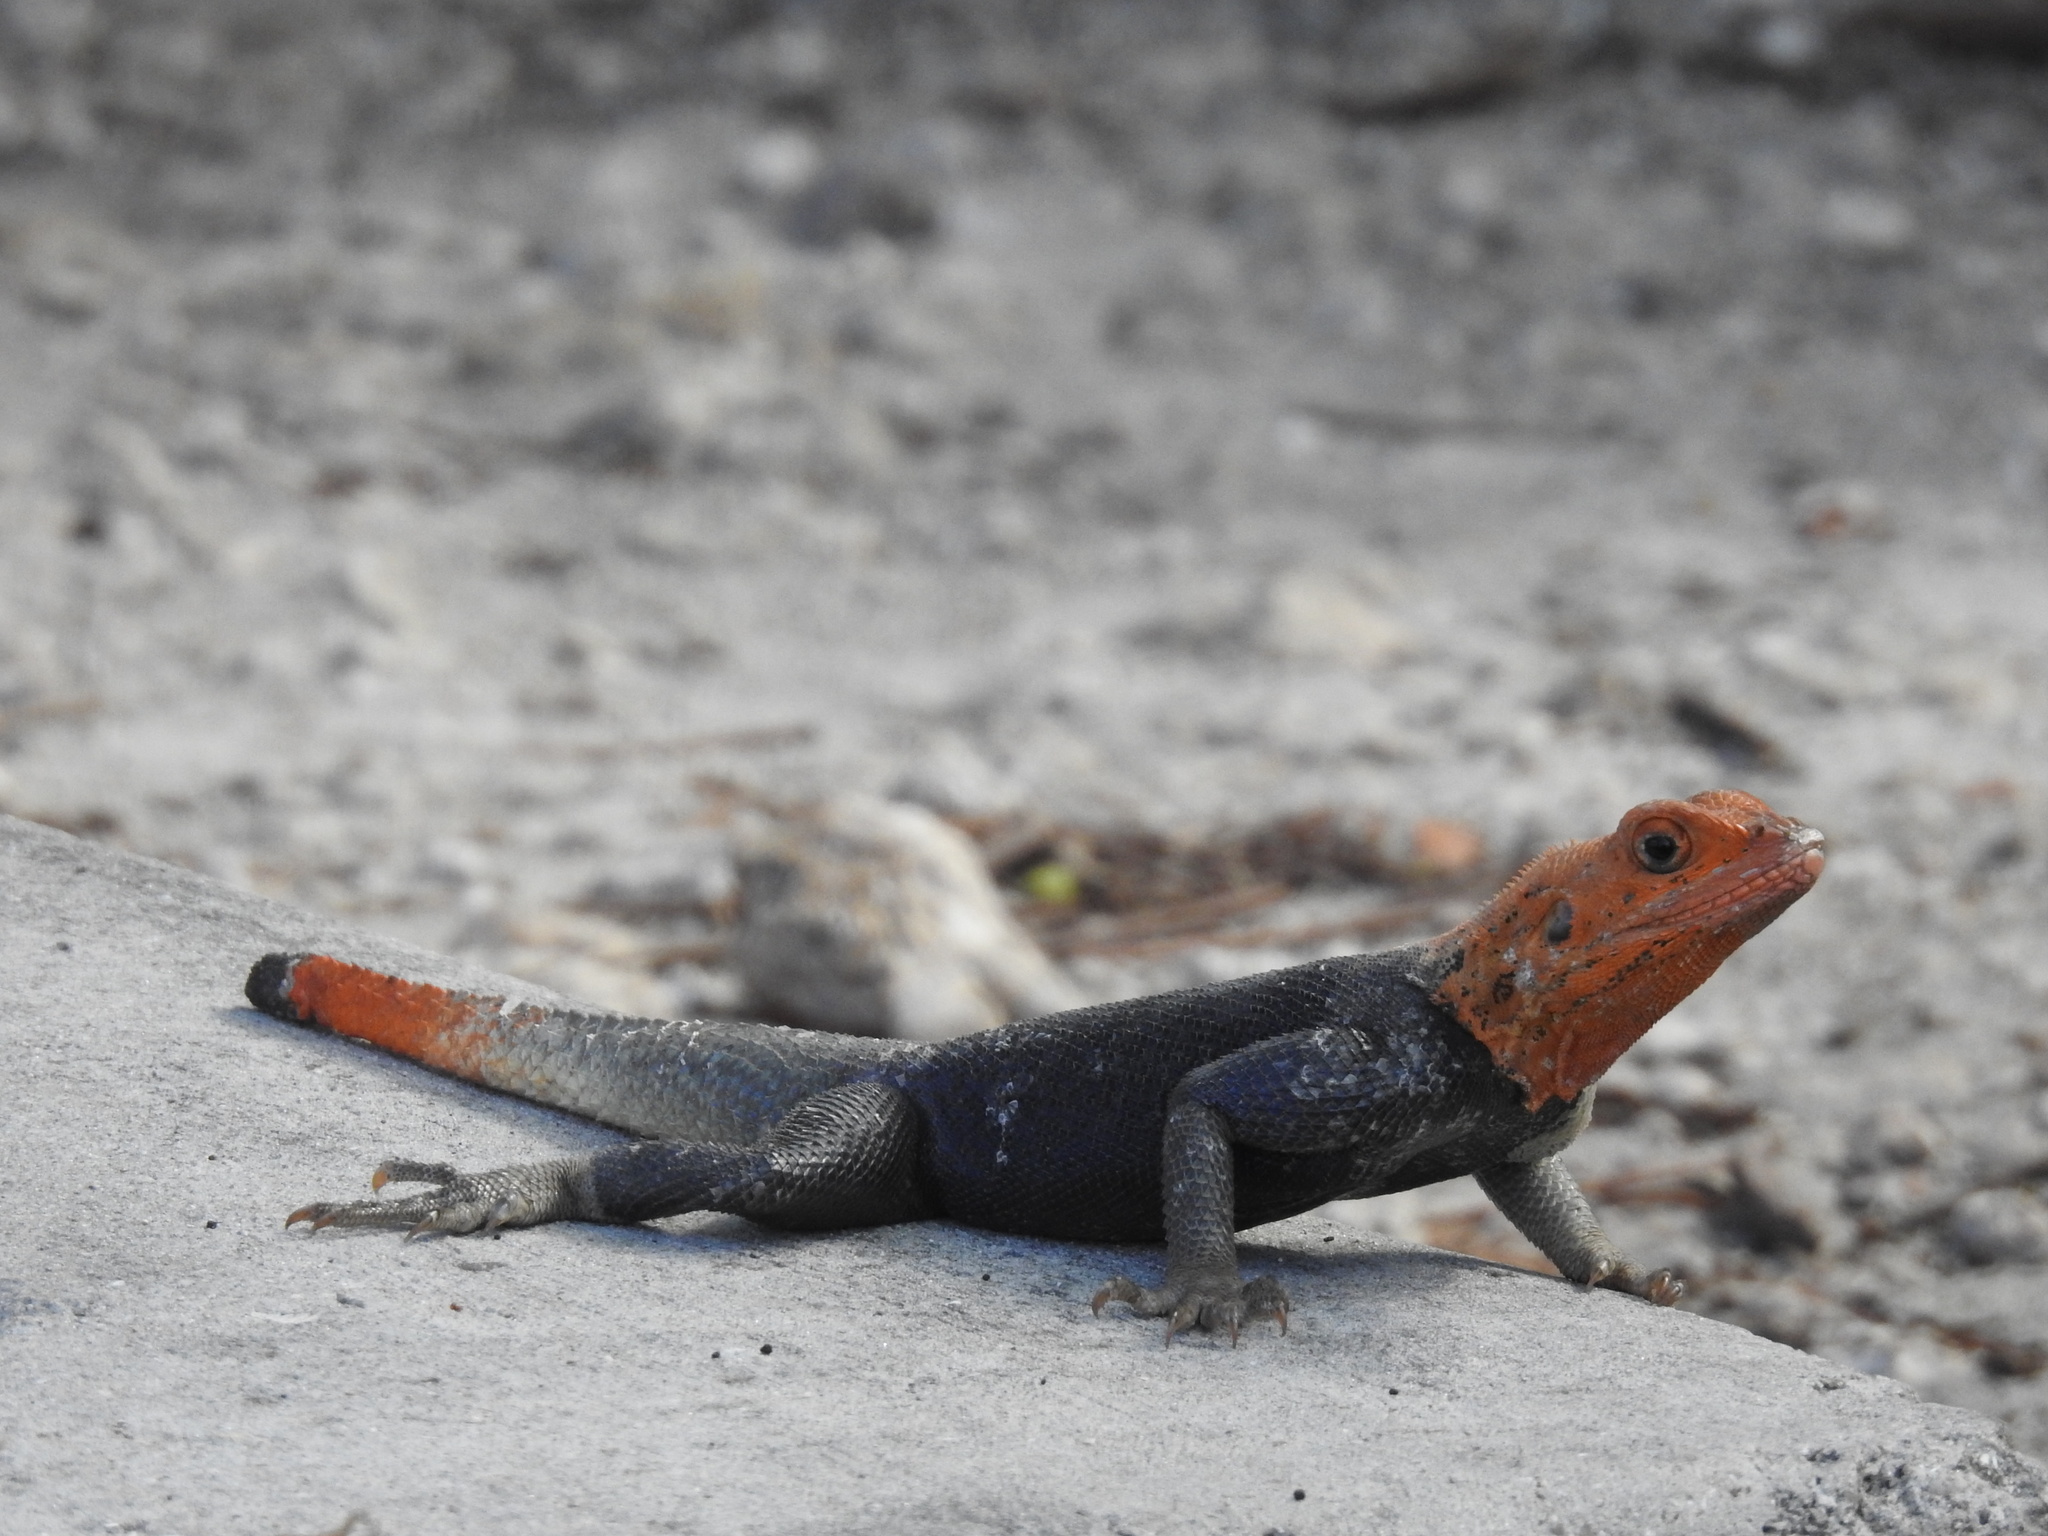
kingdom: Animalia
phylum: Chordata
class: Squamata
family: Agamidae
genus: Agama
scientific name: Agama picticauda
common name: Red-headed agama
